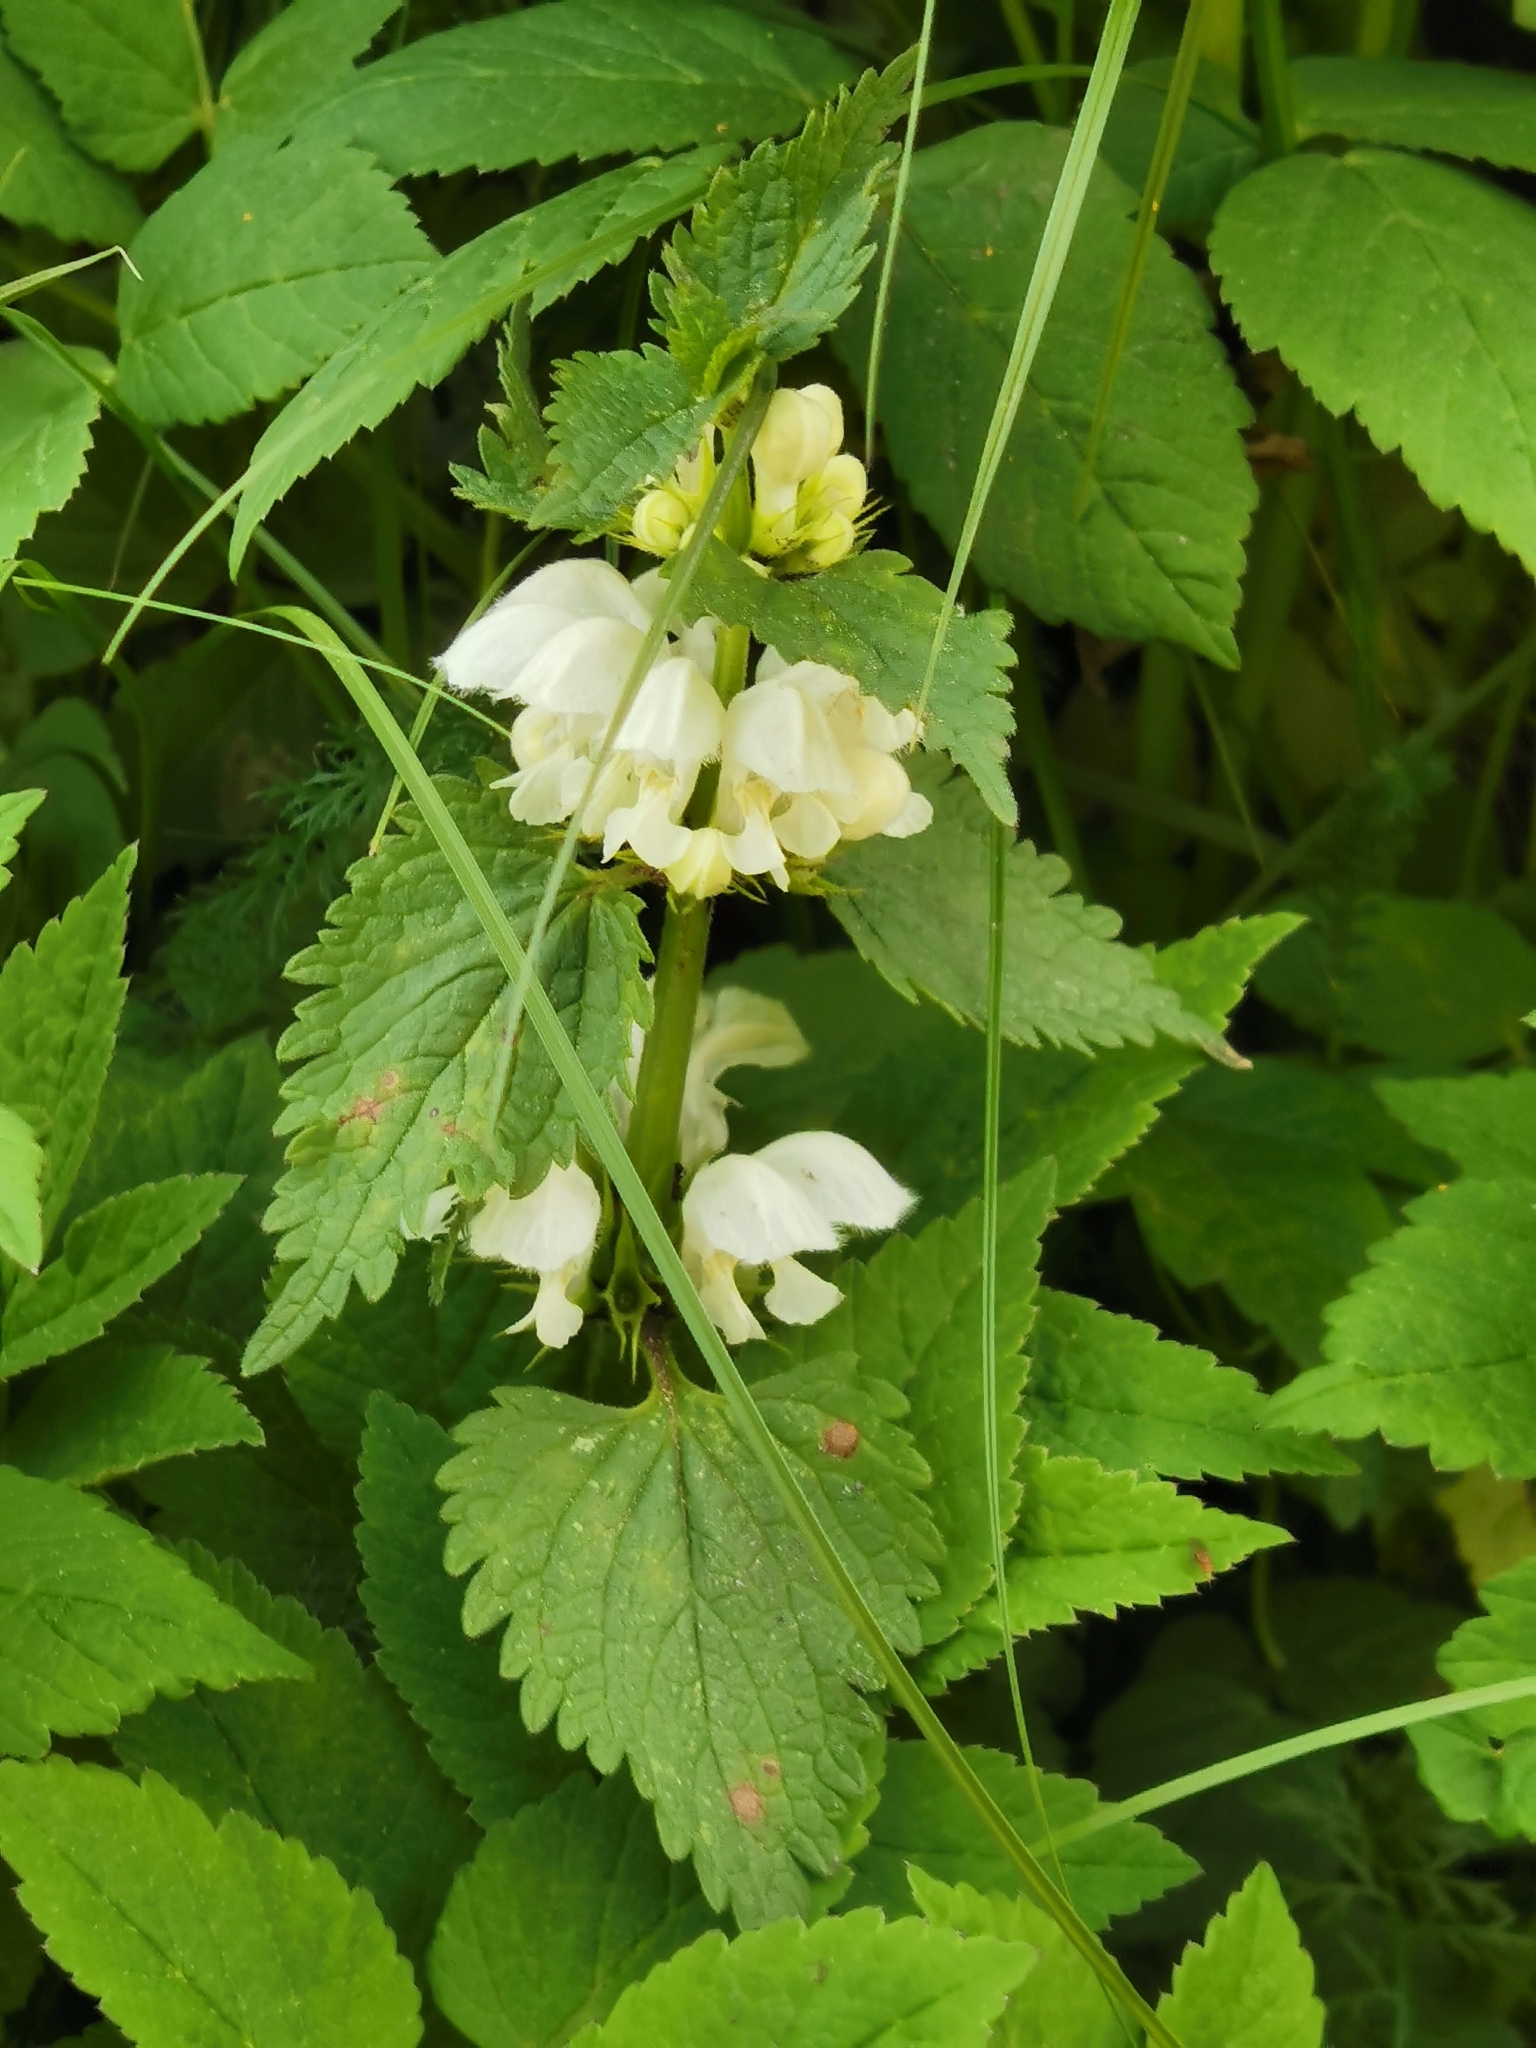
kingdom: Plantae
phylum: Tracheophyta
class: Magnoliopsida
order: Lamiales
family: Lamiaceae
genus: Lamium
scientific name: Lamium album
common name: White dead-nettle
